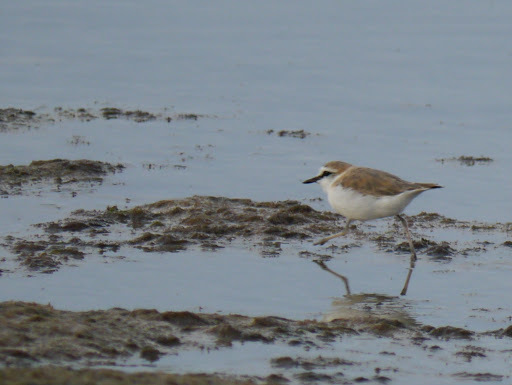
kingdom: Animalia
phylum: Chordata
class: Aves
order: Charadriiformes
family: Charadriidae
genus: Anarhynchus
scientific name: Anarhynchus
